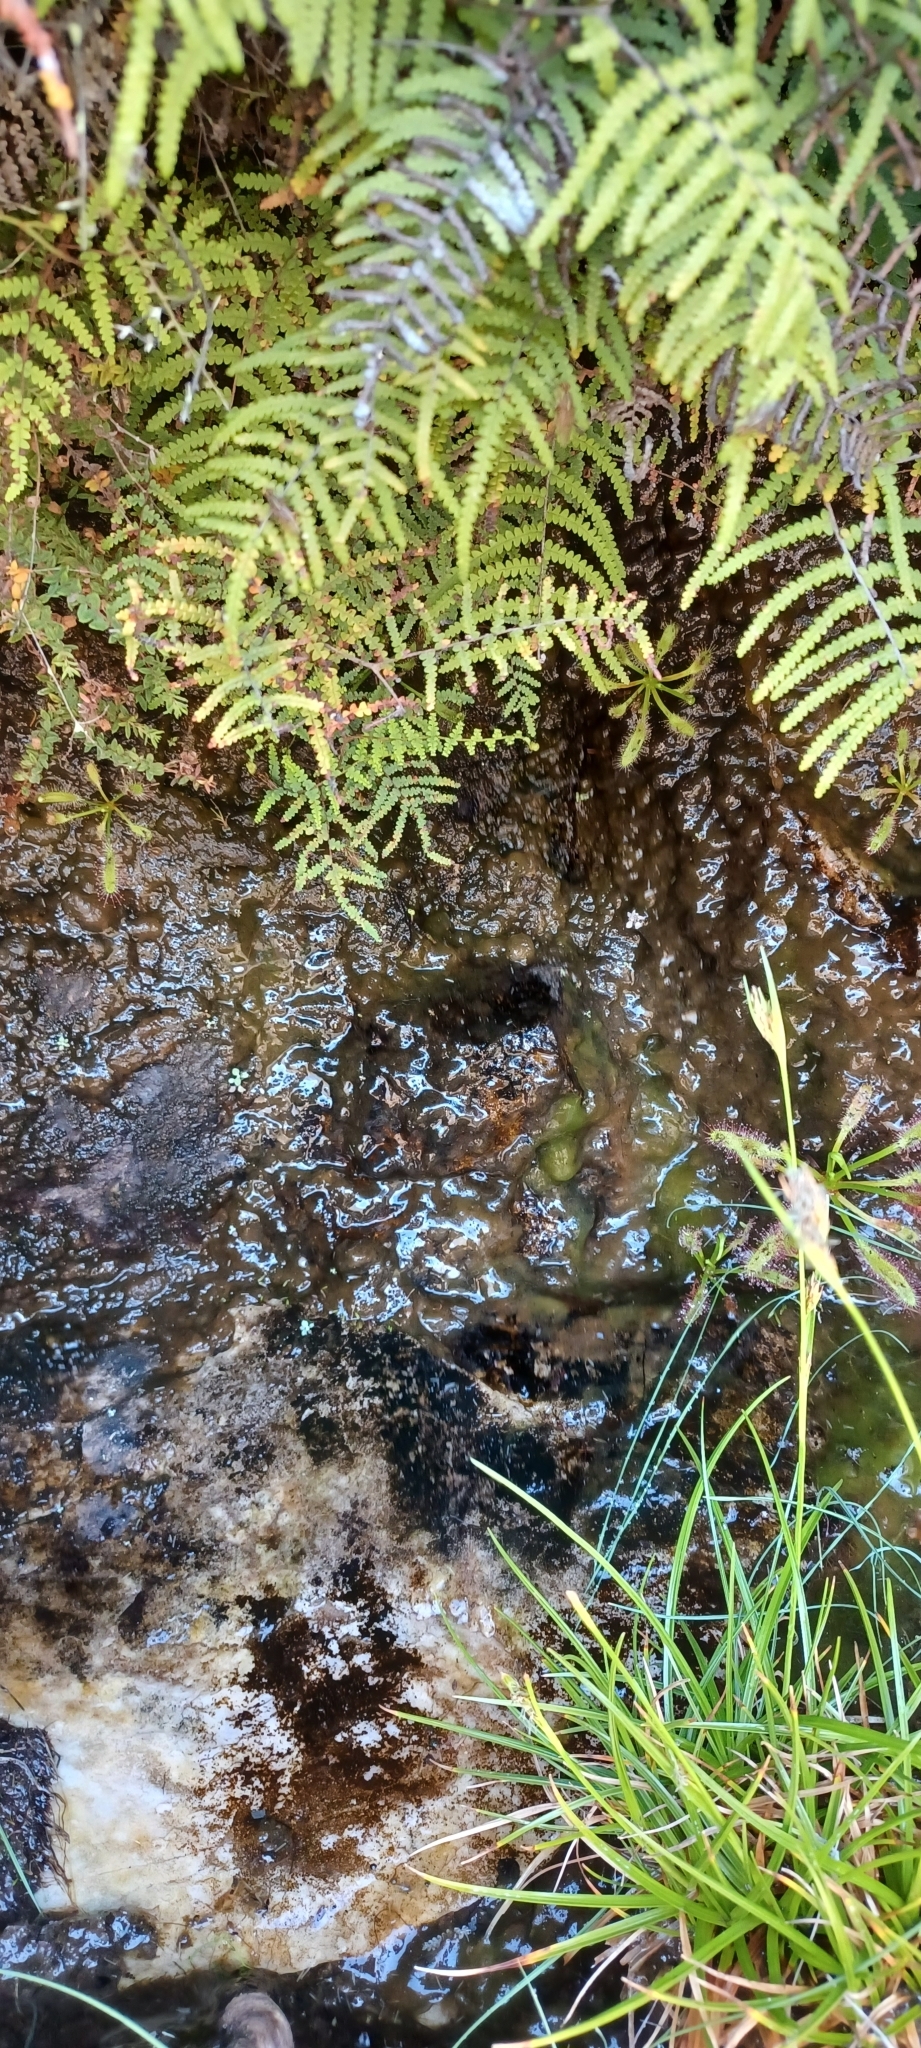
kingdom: Plantae
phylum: Tracheophyta
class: Polypodiopsida
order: Gleicheniales
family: Gleicheniaceae
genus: Gleichenia
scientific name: Gleichenia polypodioides
